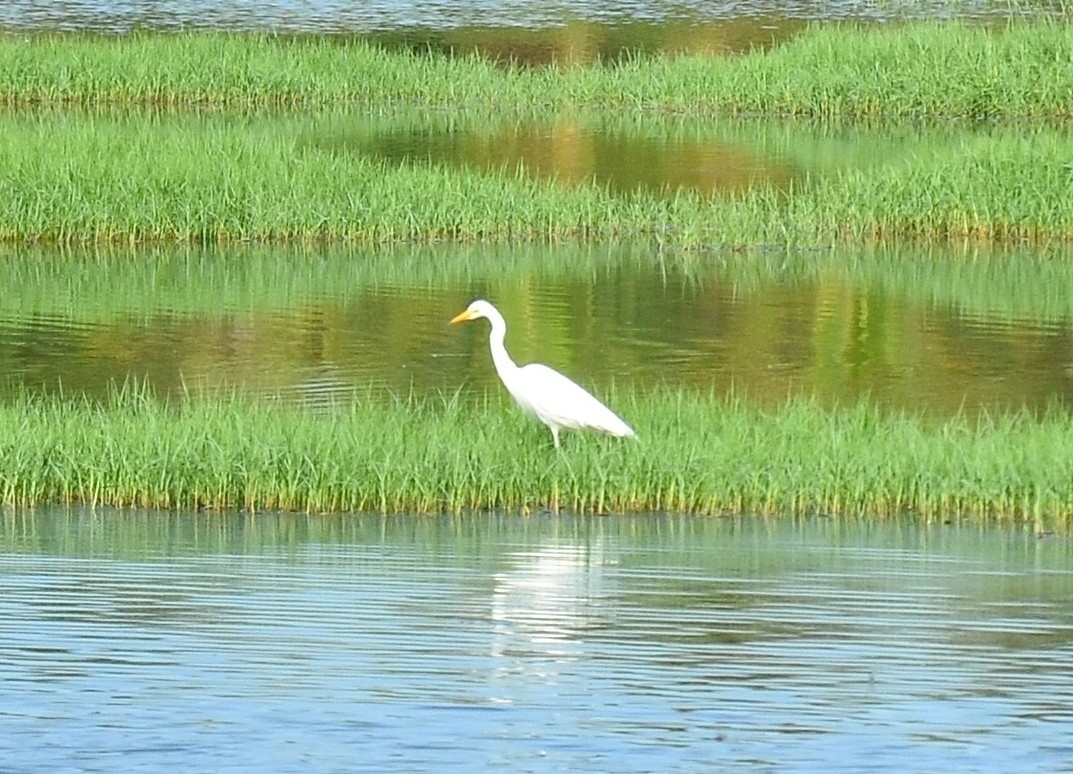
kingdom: Animalia
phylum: Chordata
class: Aves
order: Pelecaniformes
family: Ardeidae
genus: Egretta
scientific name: Egretta intermedia
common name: Intermediate egret
